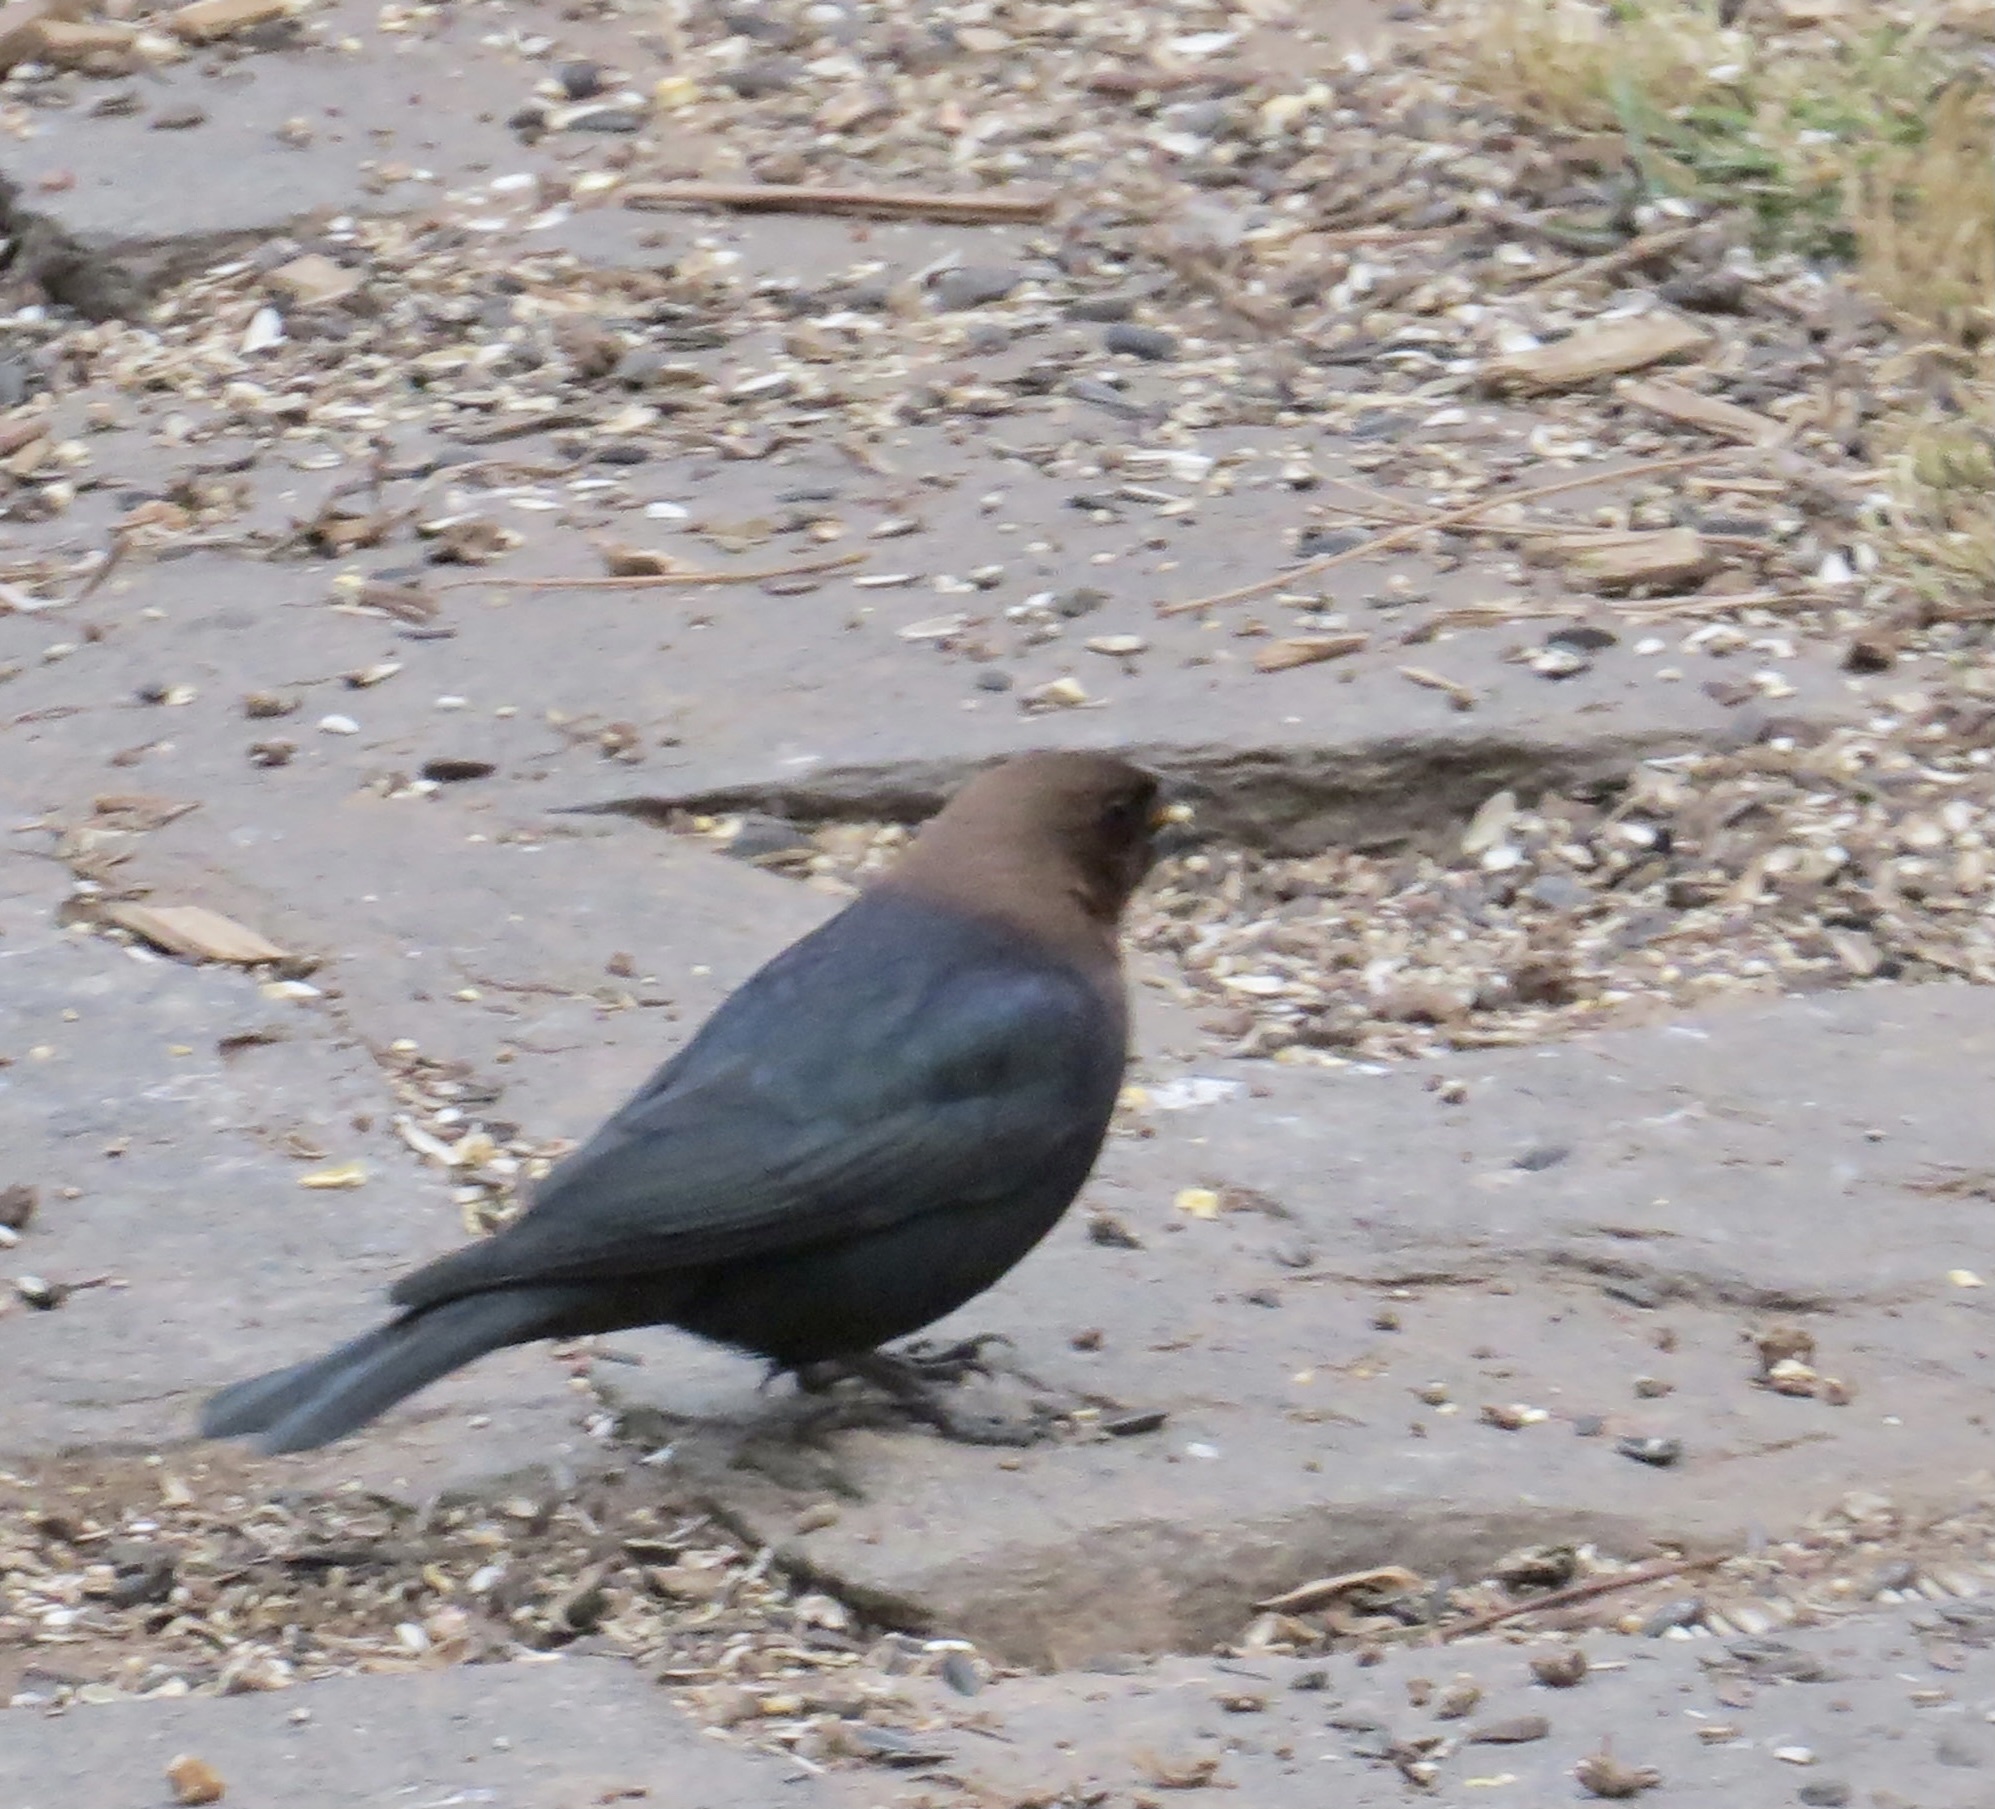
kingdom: Animalia
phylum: Chordata
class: Aves
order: Passeriformes
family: Icteridae
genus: Molothrus
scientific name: Molothrus ater
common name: Brown-headed cowbird
